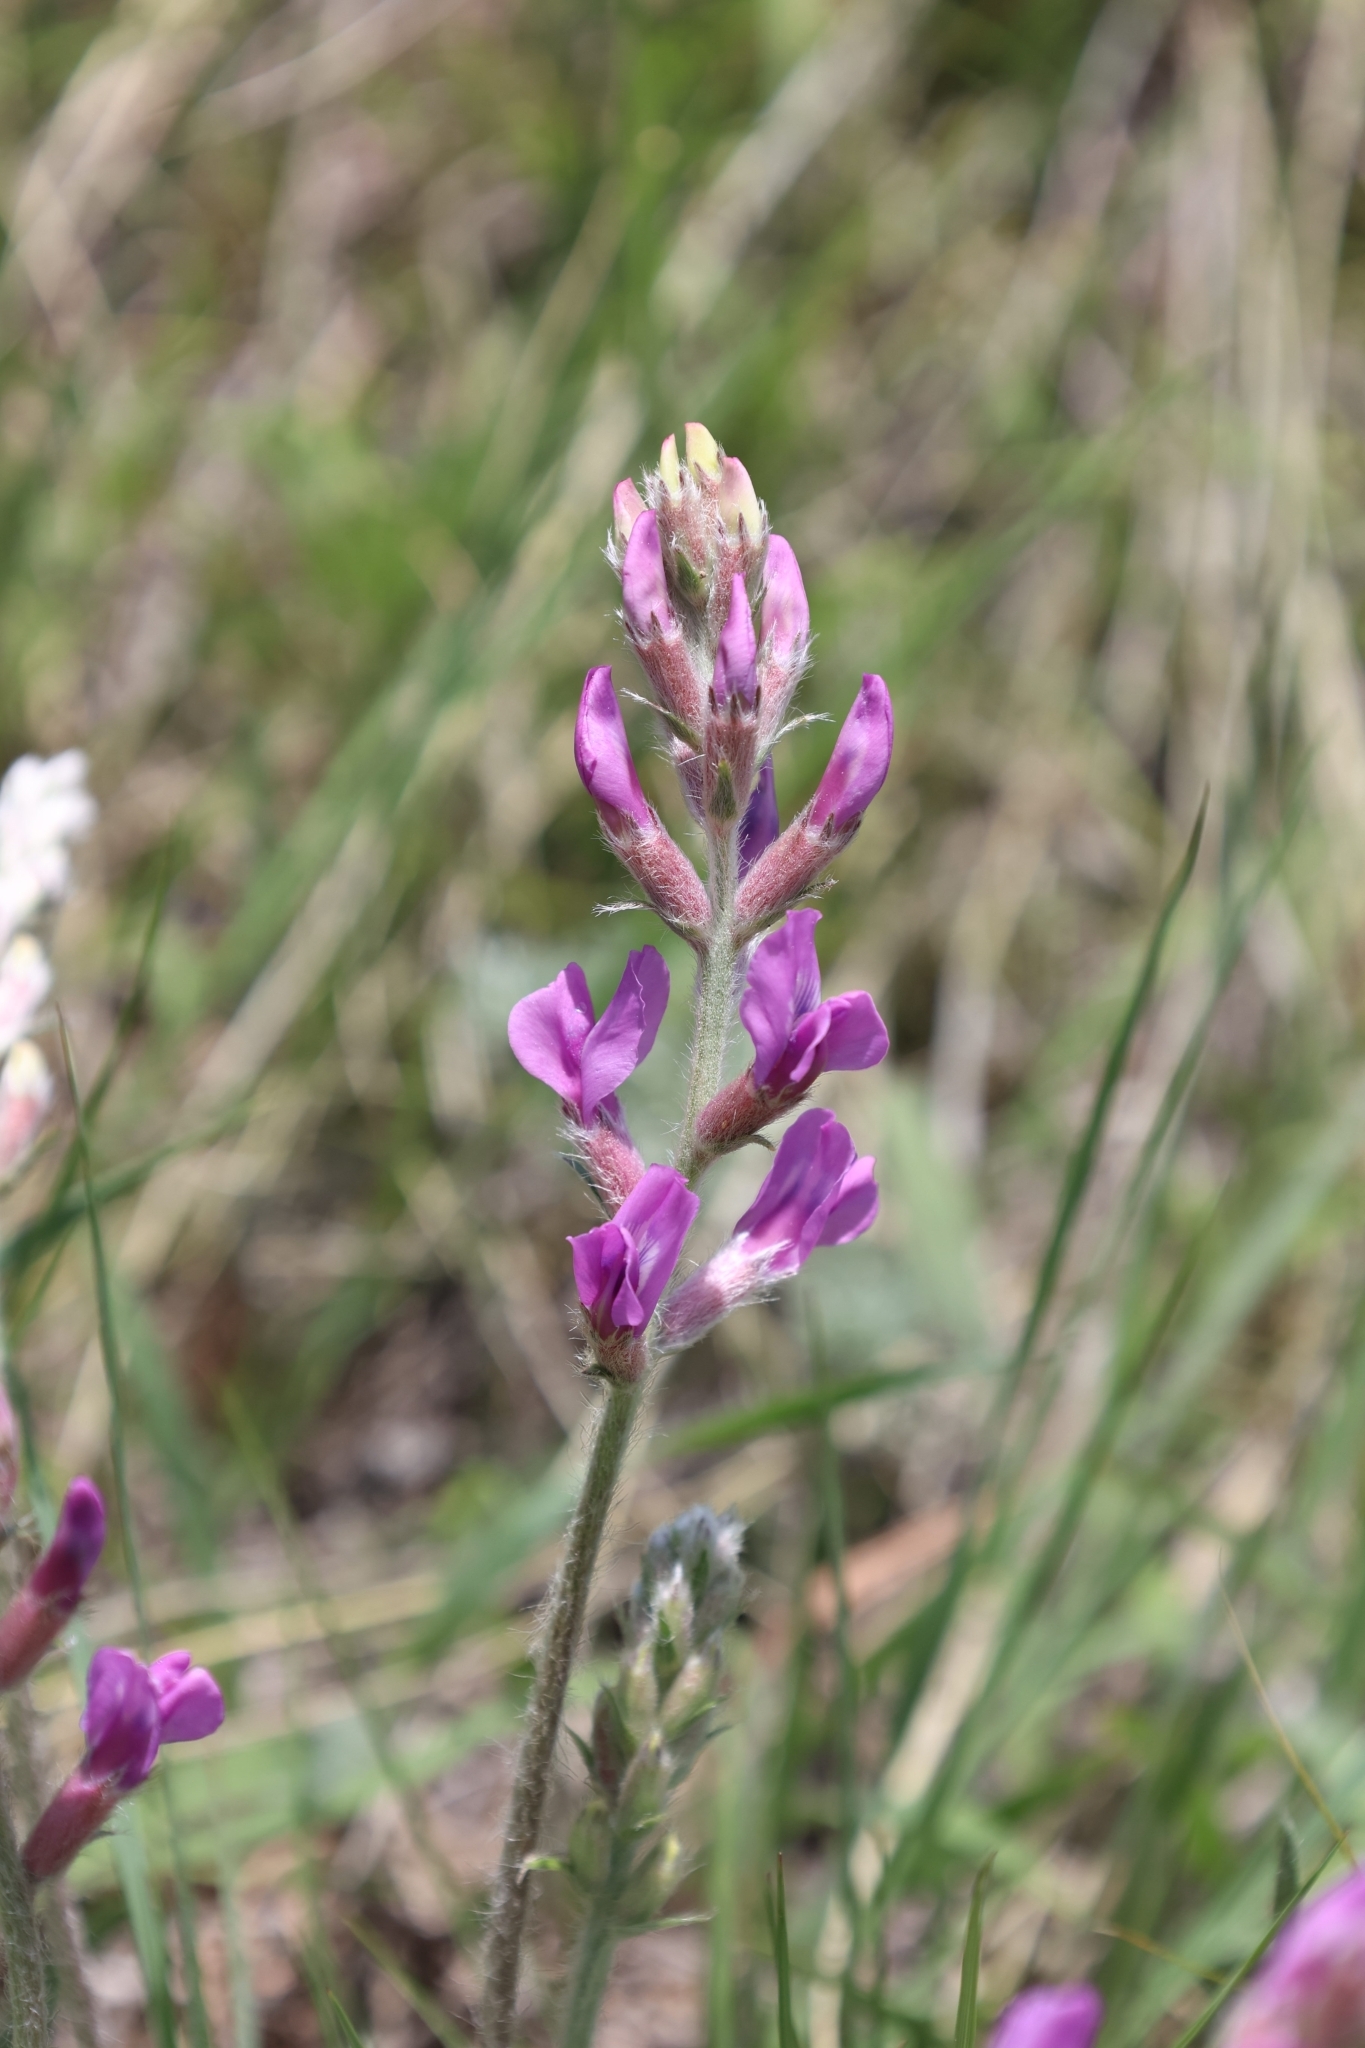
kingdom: Plantae
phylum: Tracheophyta
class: Magnoliopsida
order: Fabales
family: Fabaceae
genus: Oxytropis
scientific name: Oxytropis lambertii
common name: Purple locoweed
